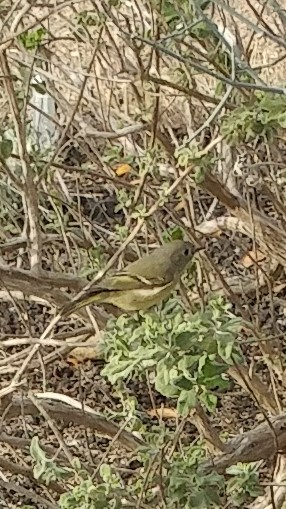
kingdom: Animalia
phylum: Chordata
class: Aves
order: Passeriformes
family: Regulidae
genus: Regulus
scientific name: Regulus calendula
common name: Ruby-crowned kinglet
